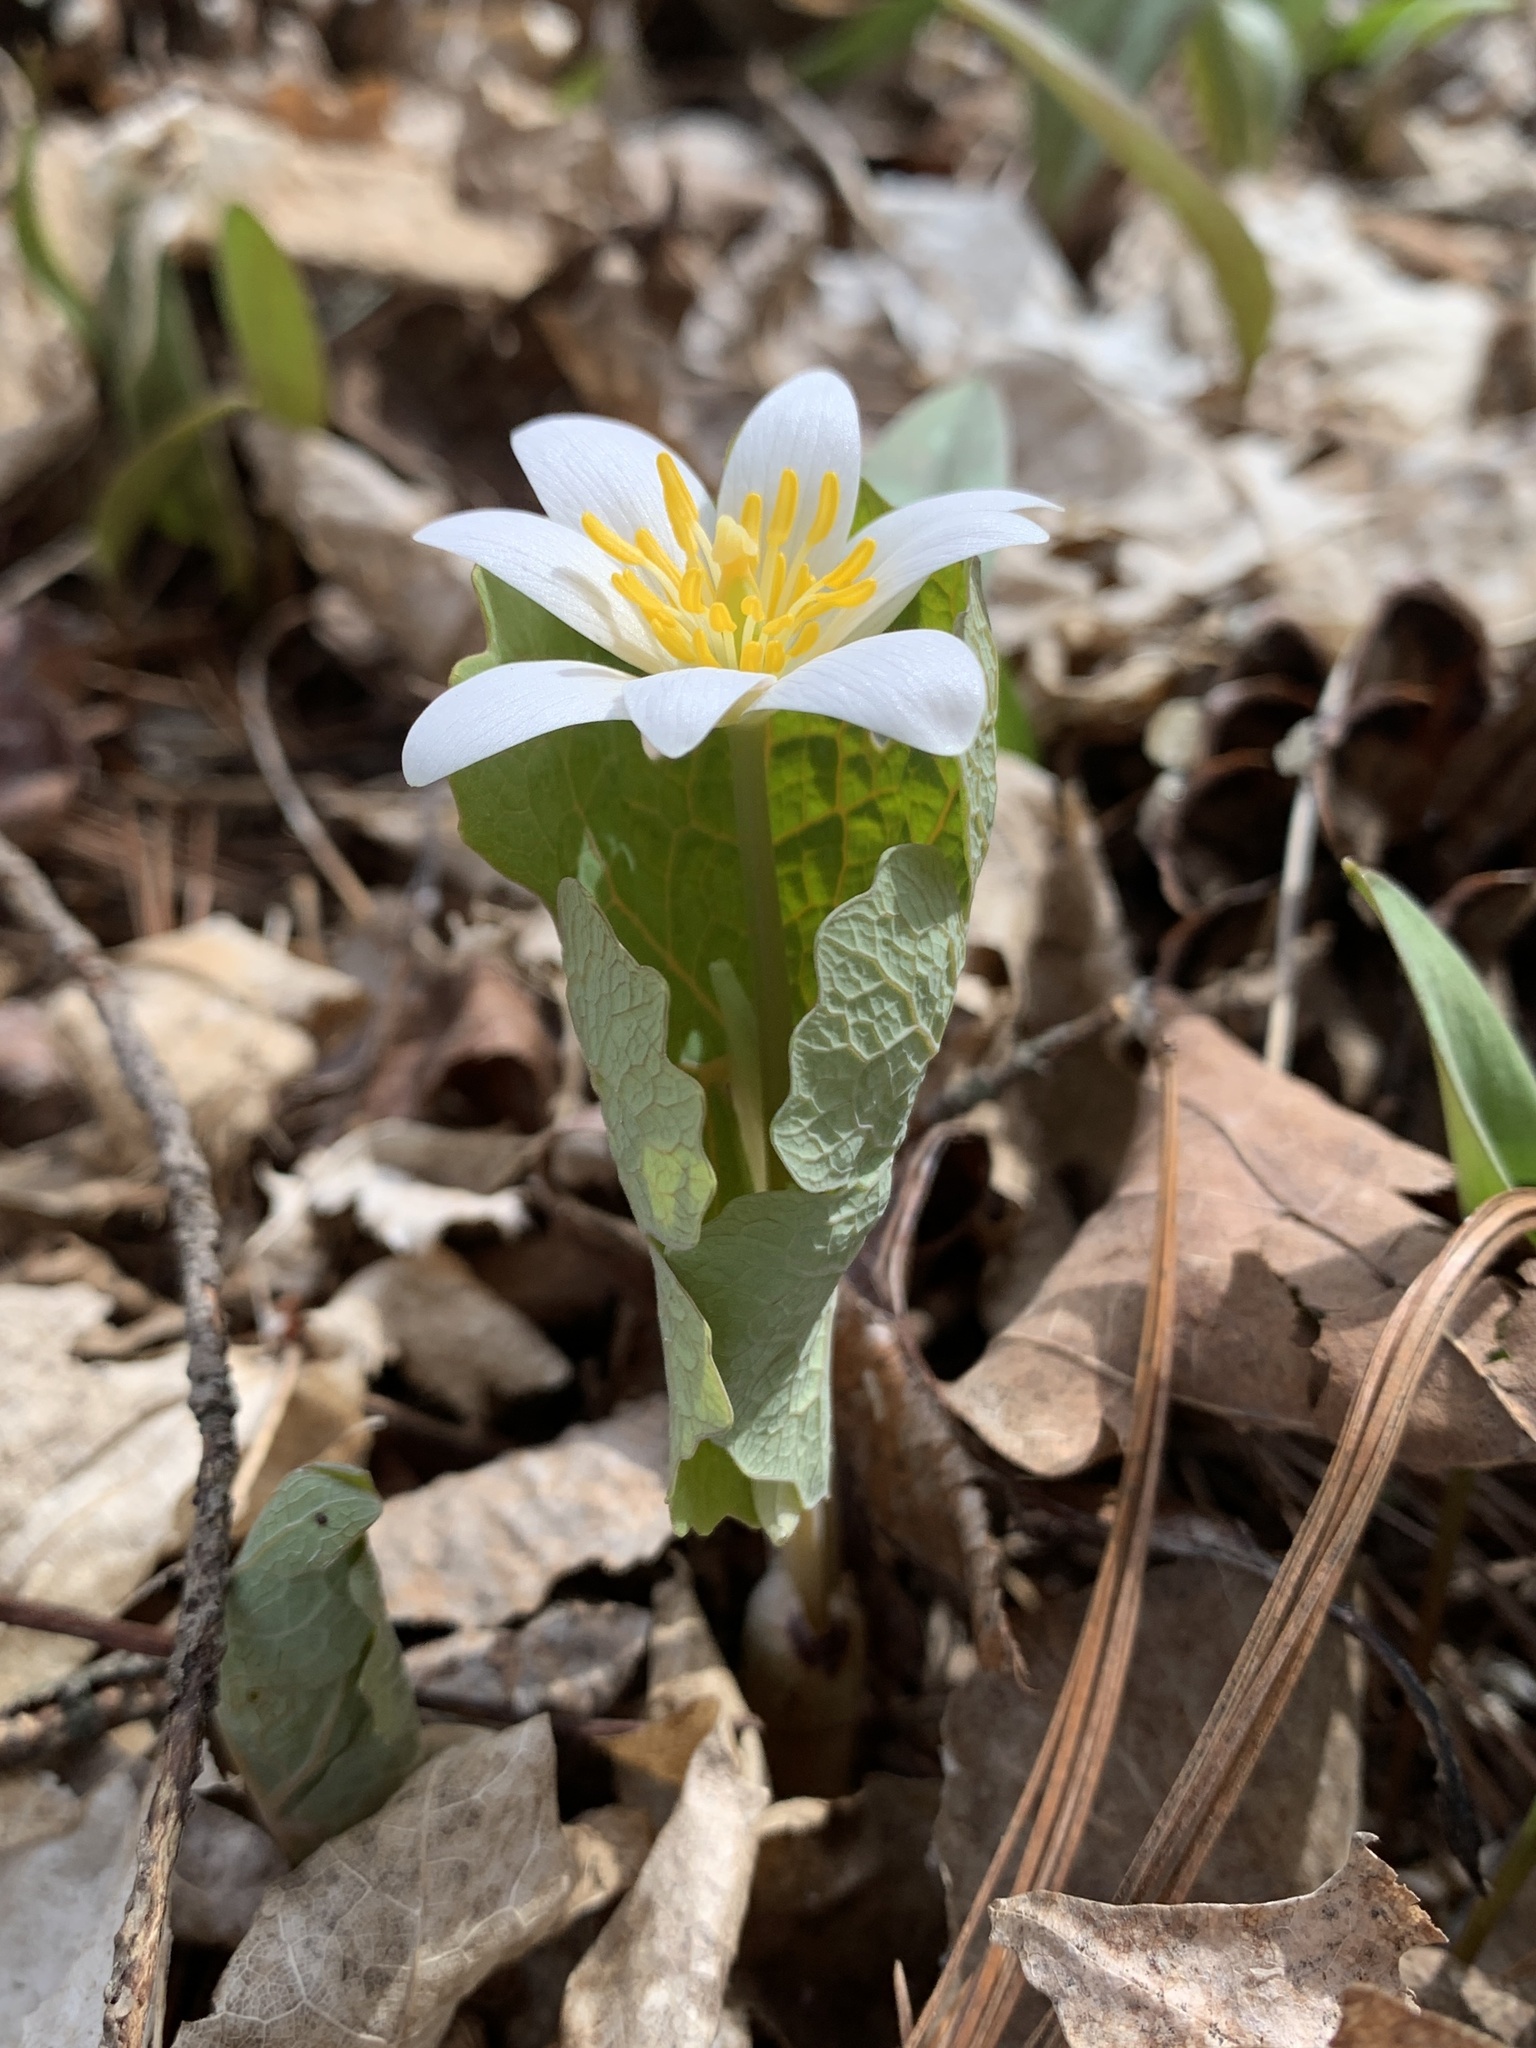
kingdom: Plantae
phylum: Tracheophyta
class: Magnoliopsida
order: Ranunculales
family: Papaveraceae
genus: Sanguinaria
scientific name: Sanguinaria canadensis
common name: Bloodroot
